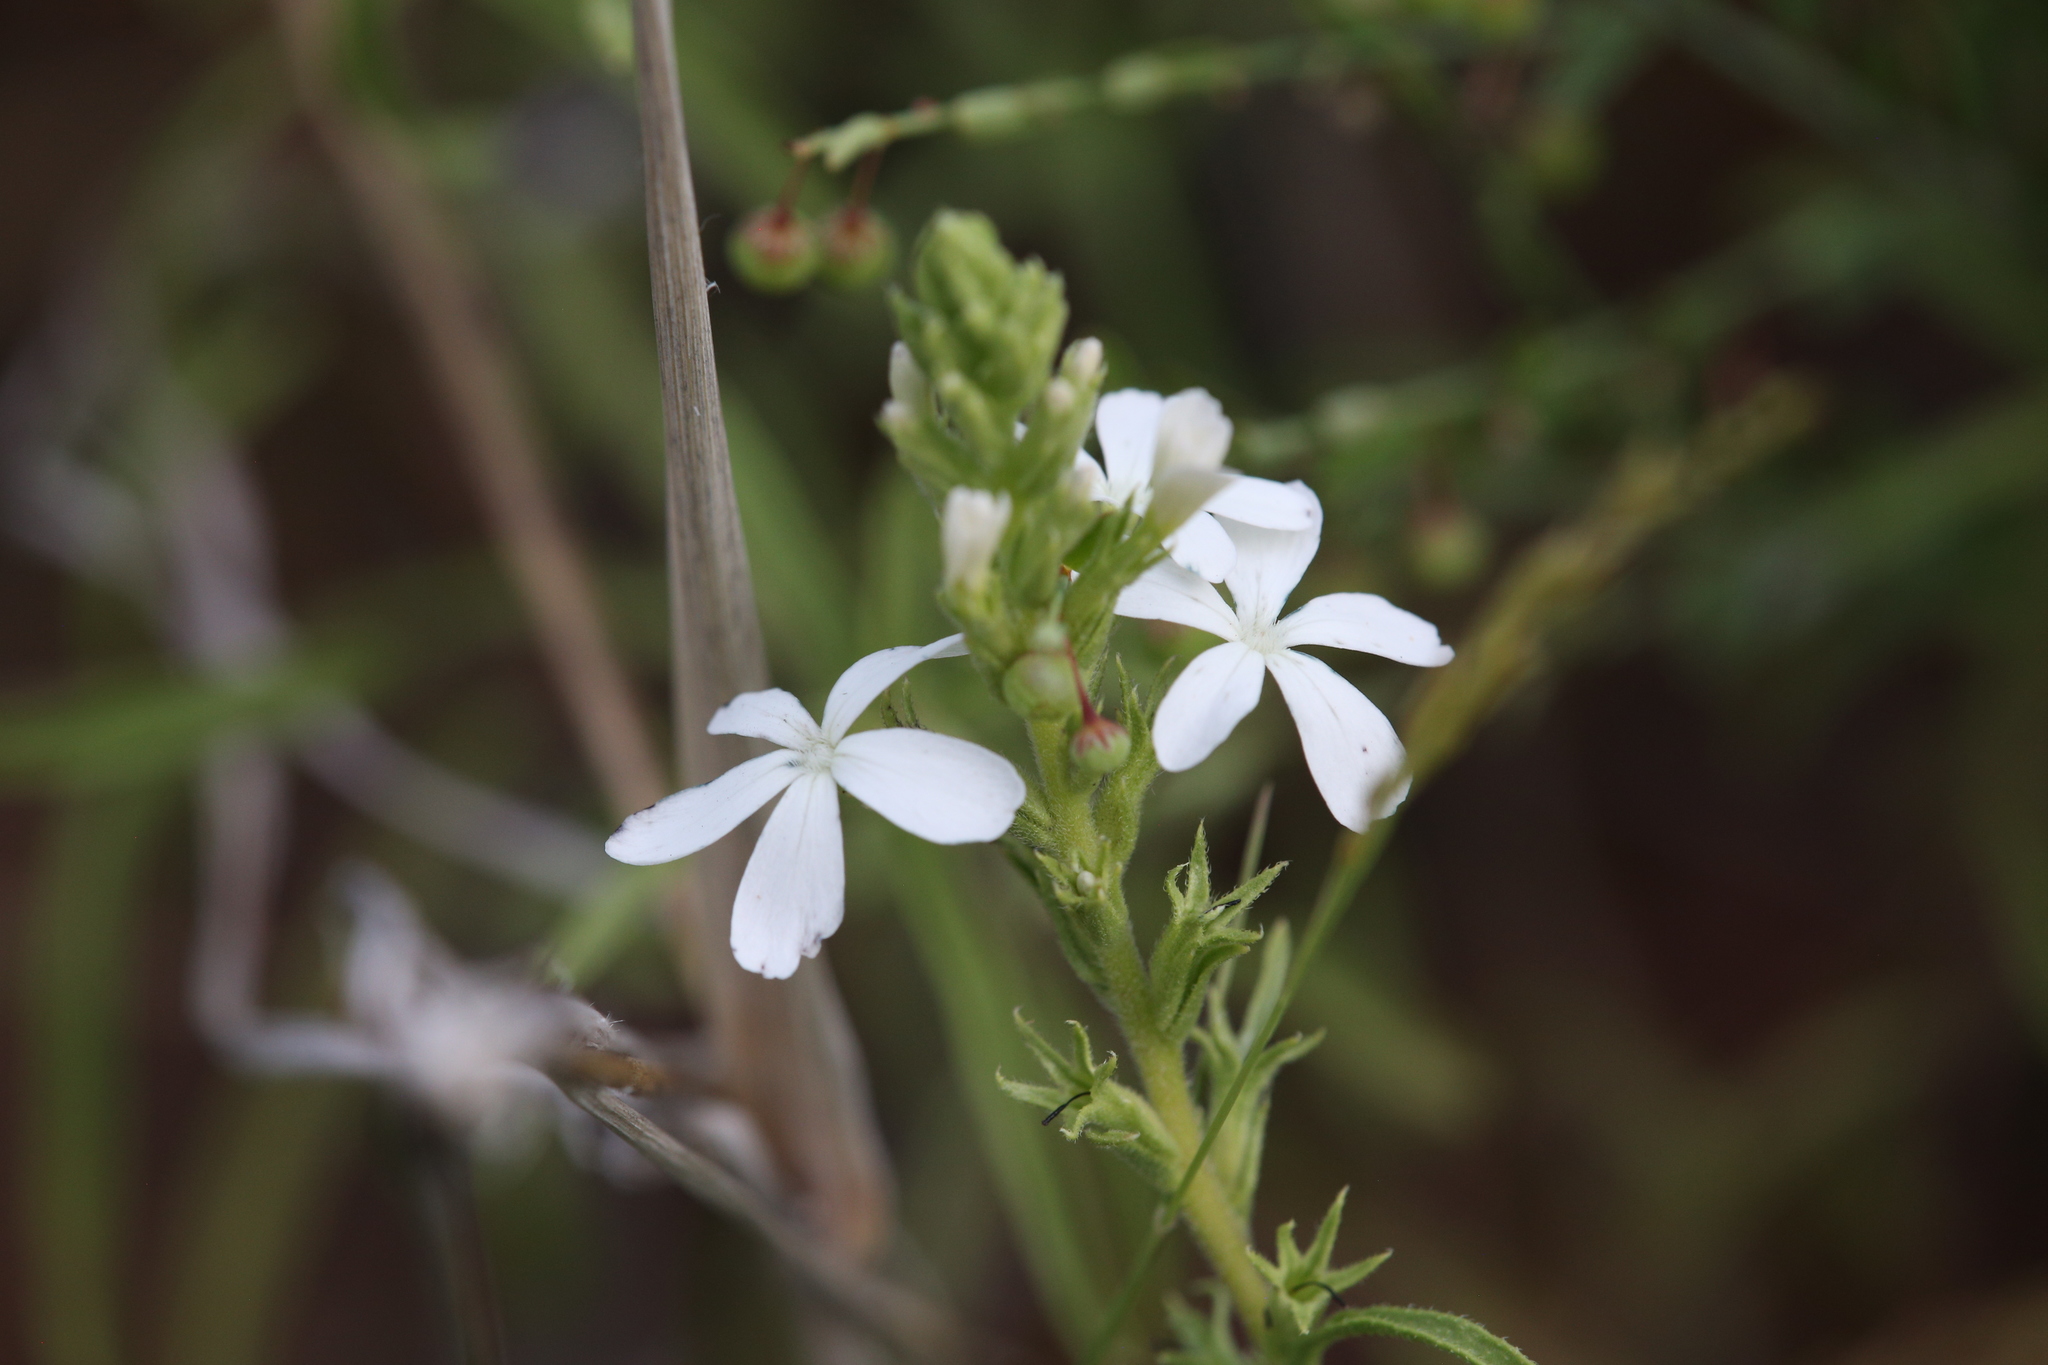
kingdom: Plantae
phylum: Tracheophyta
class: Magnoliopsida
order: Lamiales
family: Orobanchaceae
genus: Buchnera
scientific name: Buchnera linearis
